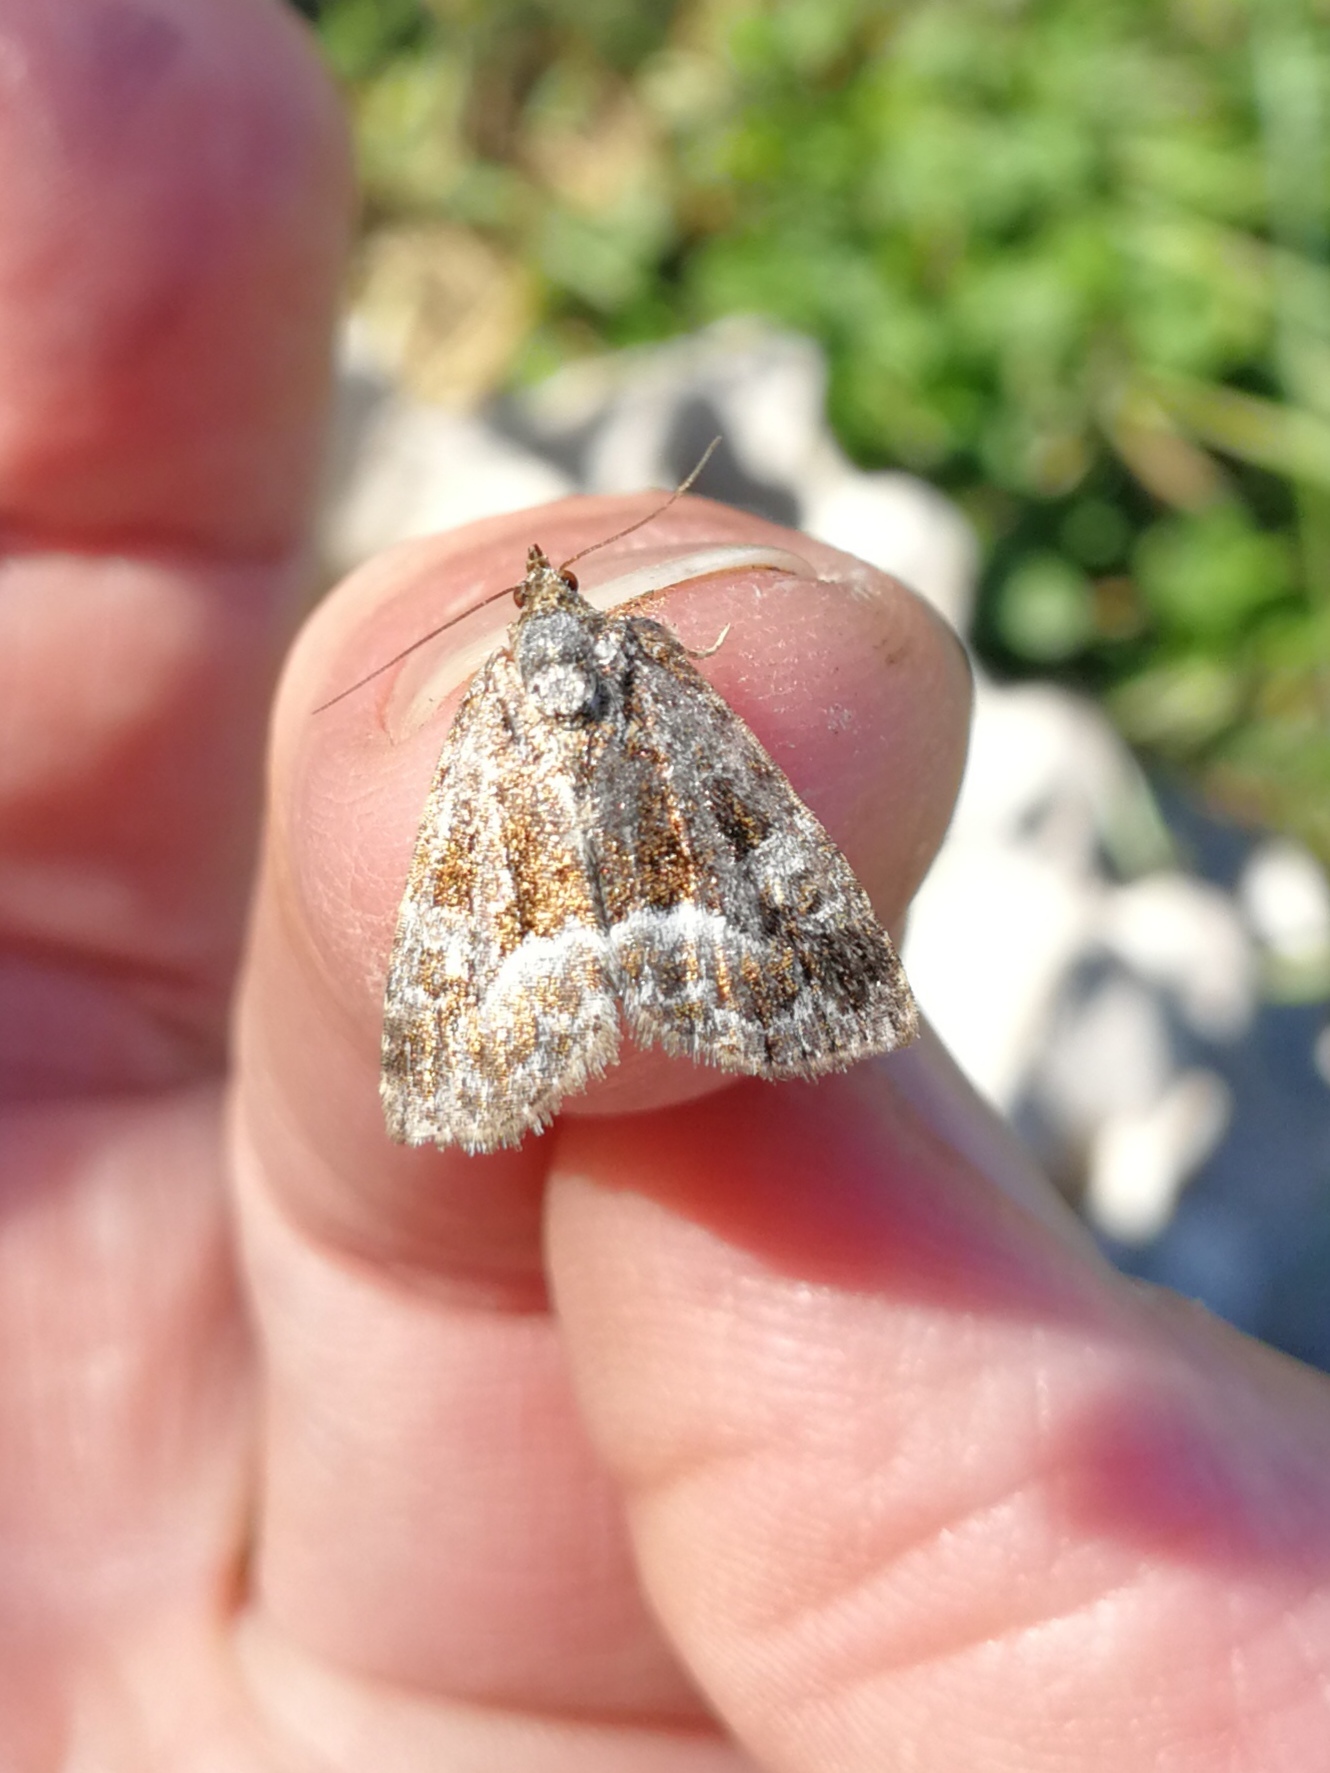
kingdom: Animalia
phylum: Arthropoda
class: Insecta
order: Lepidoptera
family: Noctuidae
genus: Deltote
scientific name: Deltote pygarga
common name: Marbled white spot
